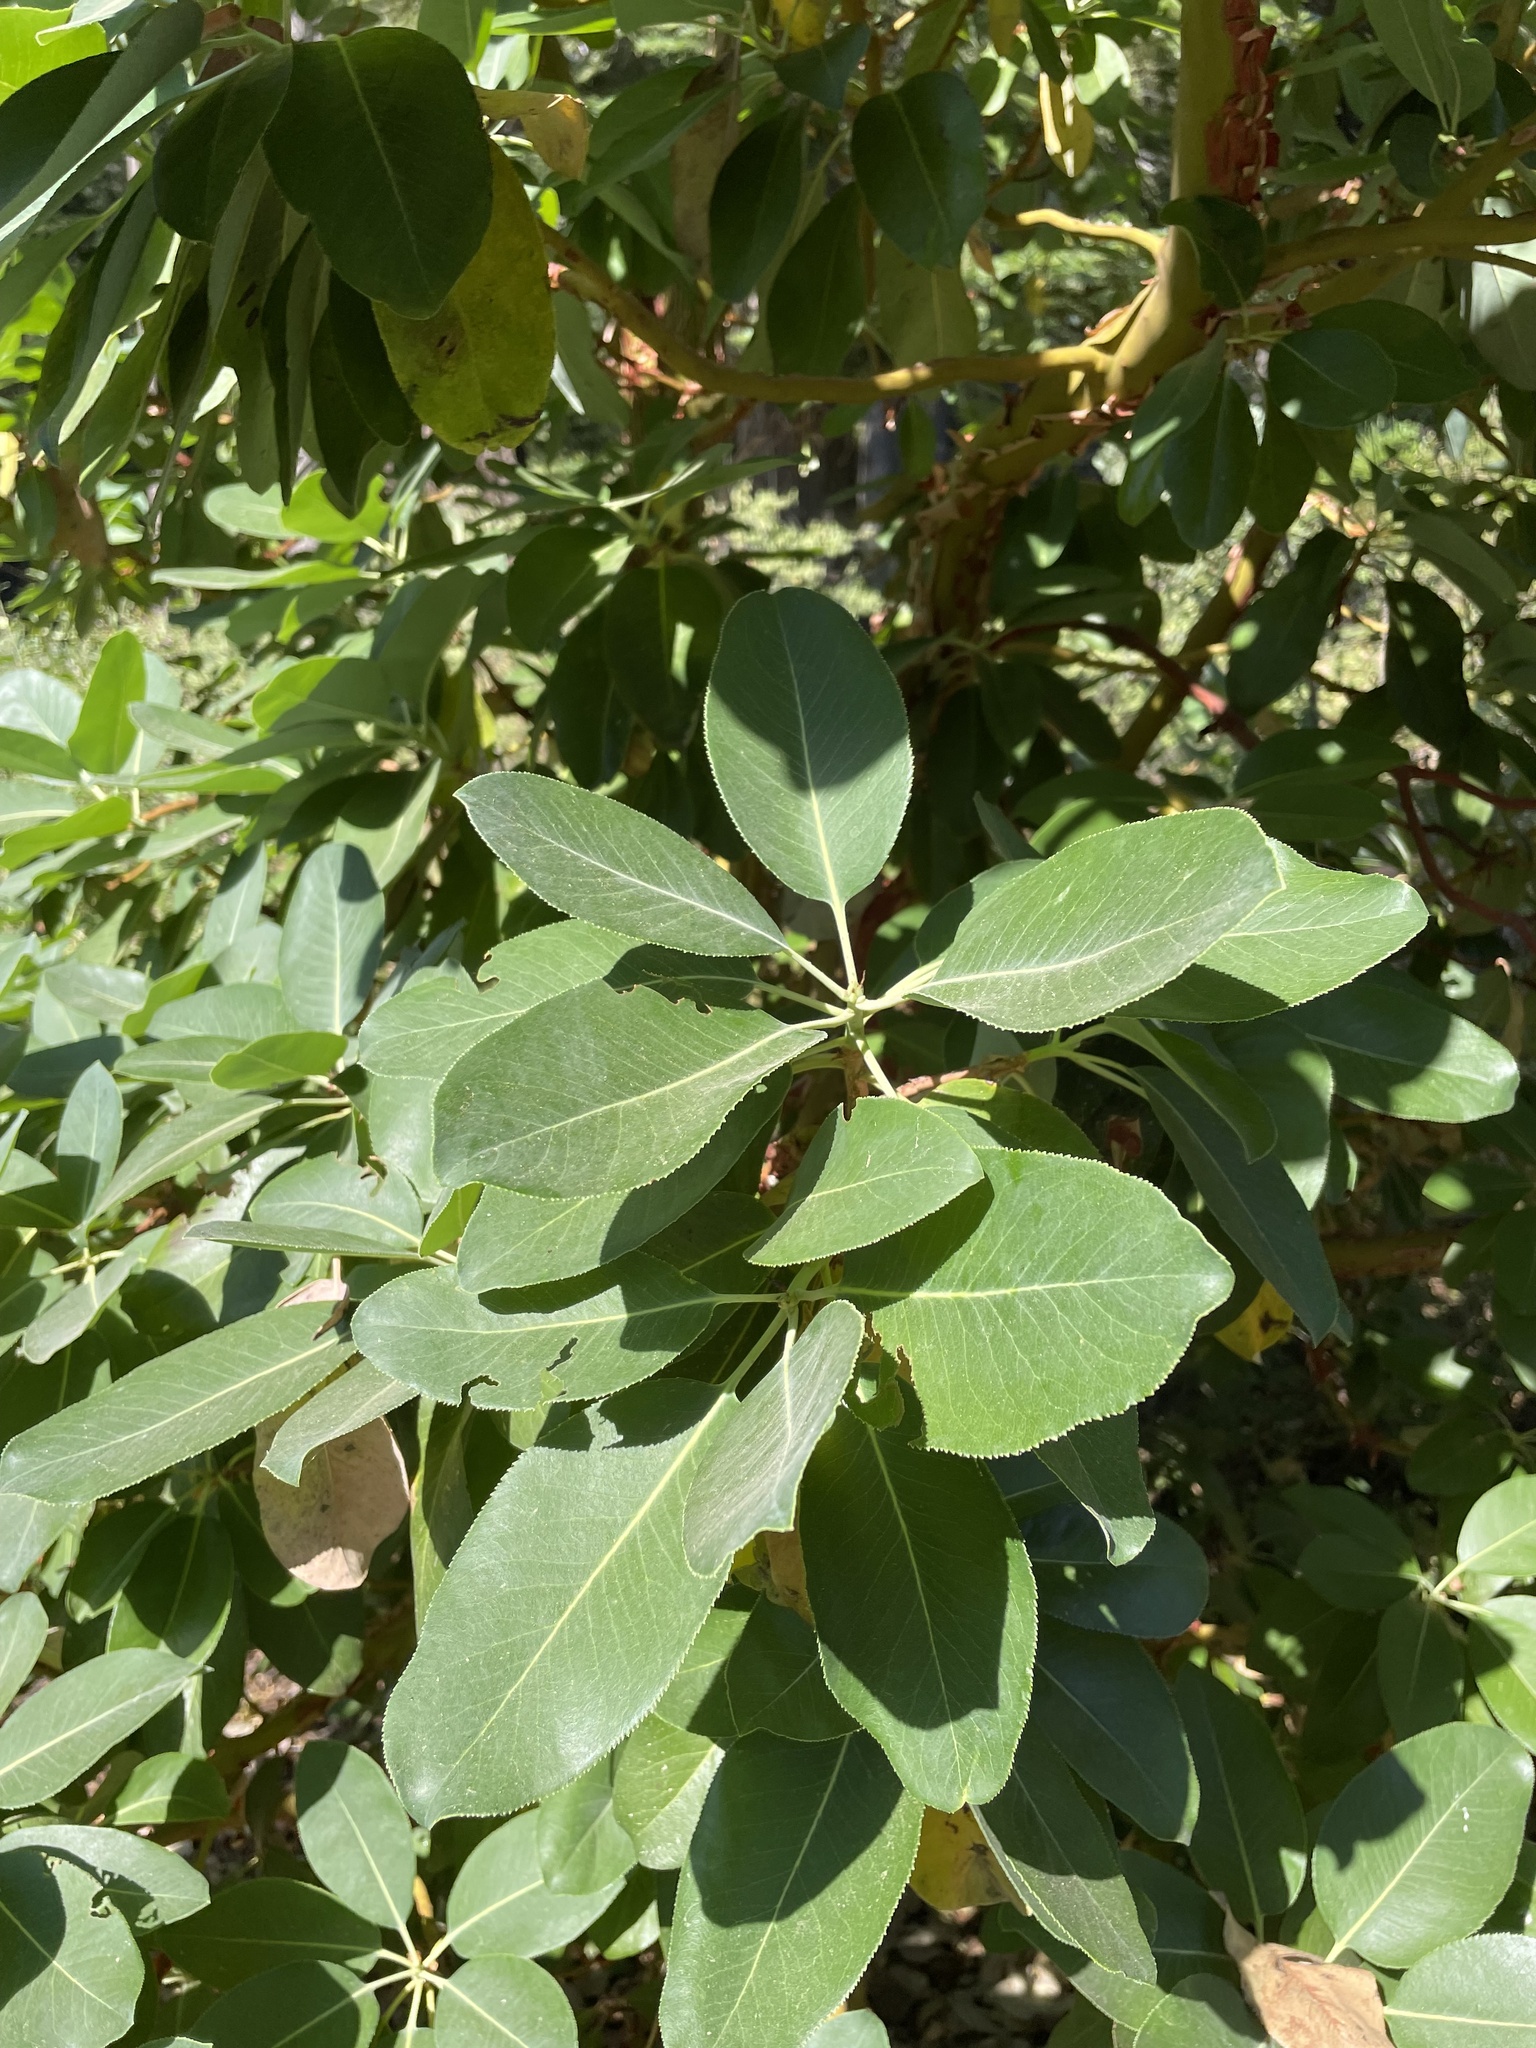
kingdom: Plantae
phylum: Tracheophyta
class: Magnoliopsida
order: Ericales
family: Ericaceae
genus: Arbutus
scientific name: Arbutus menziesii
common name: Pacific madrone
